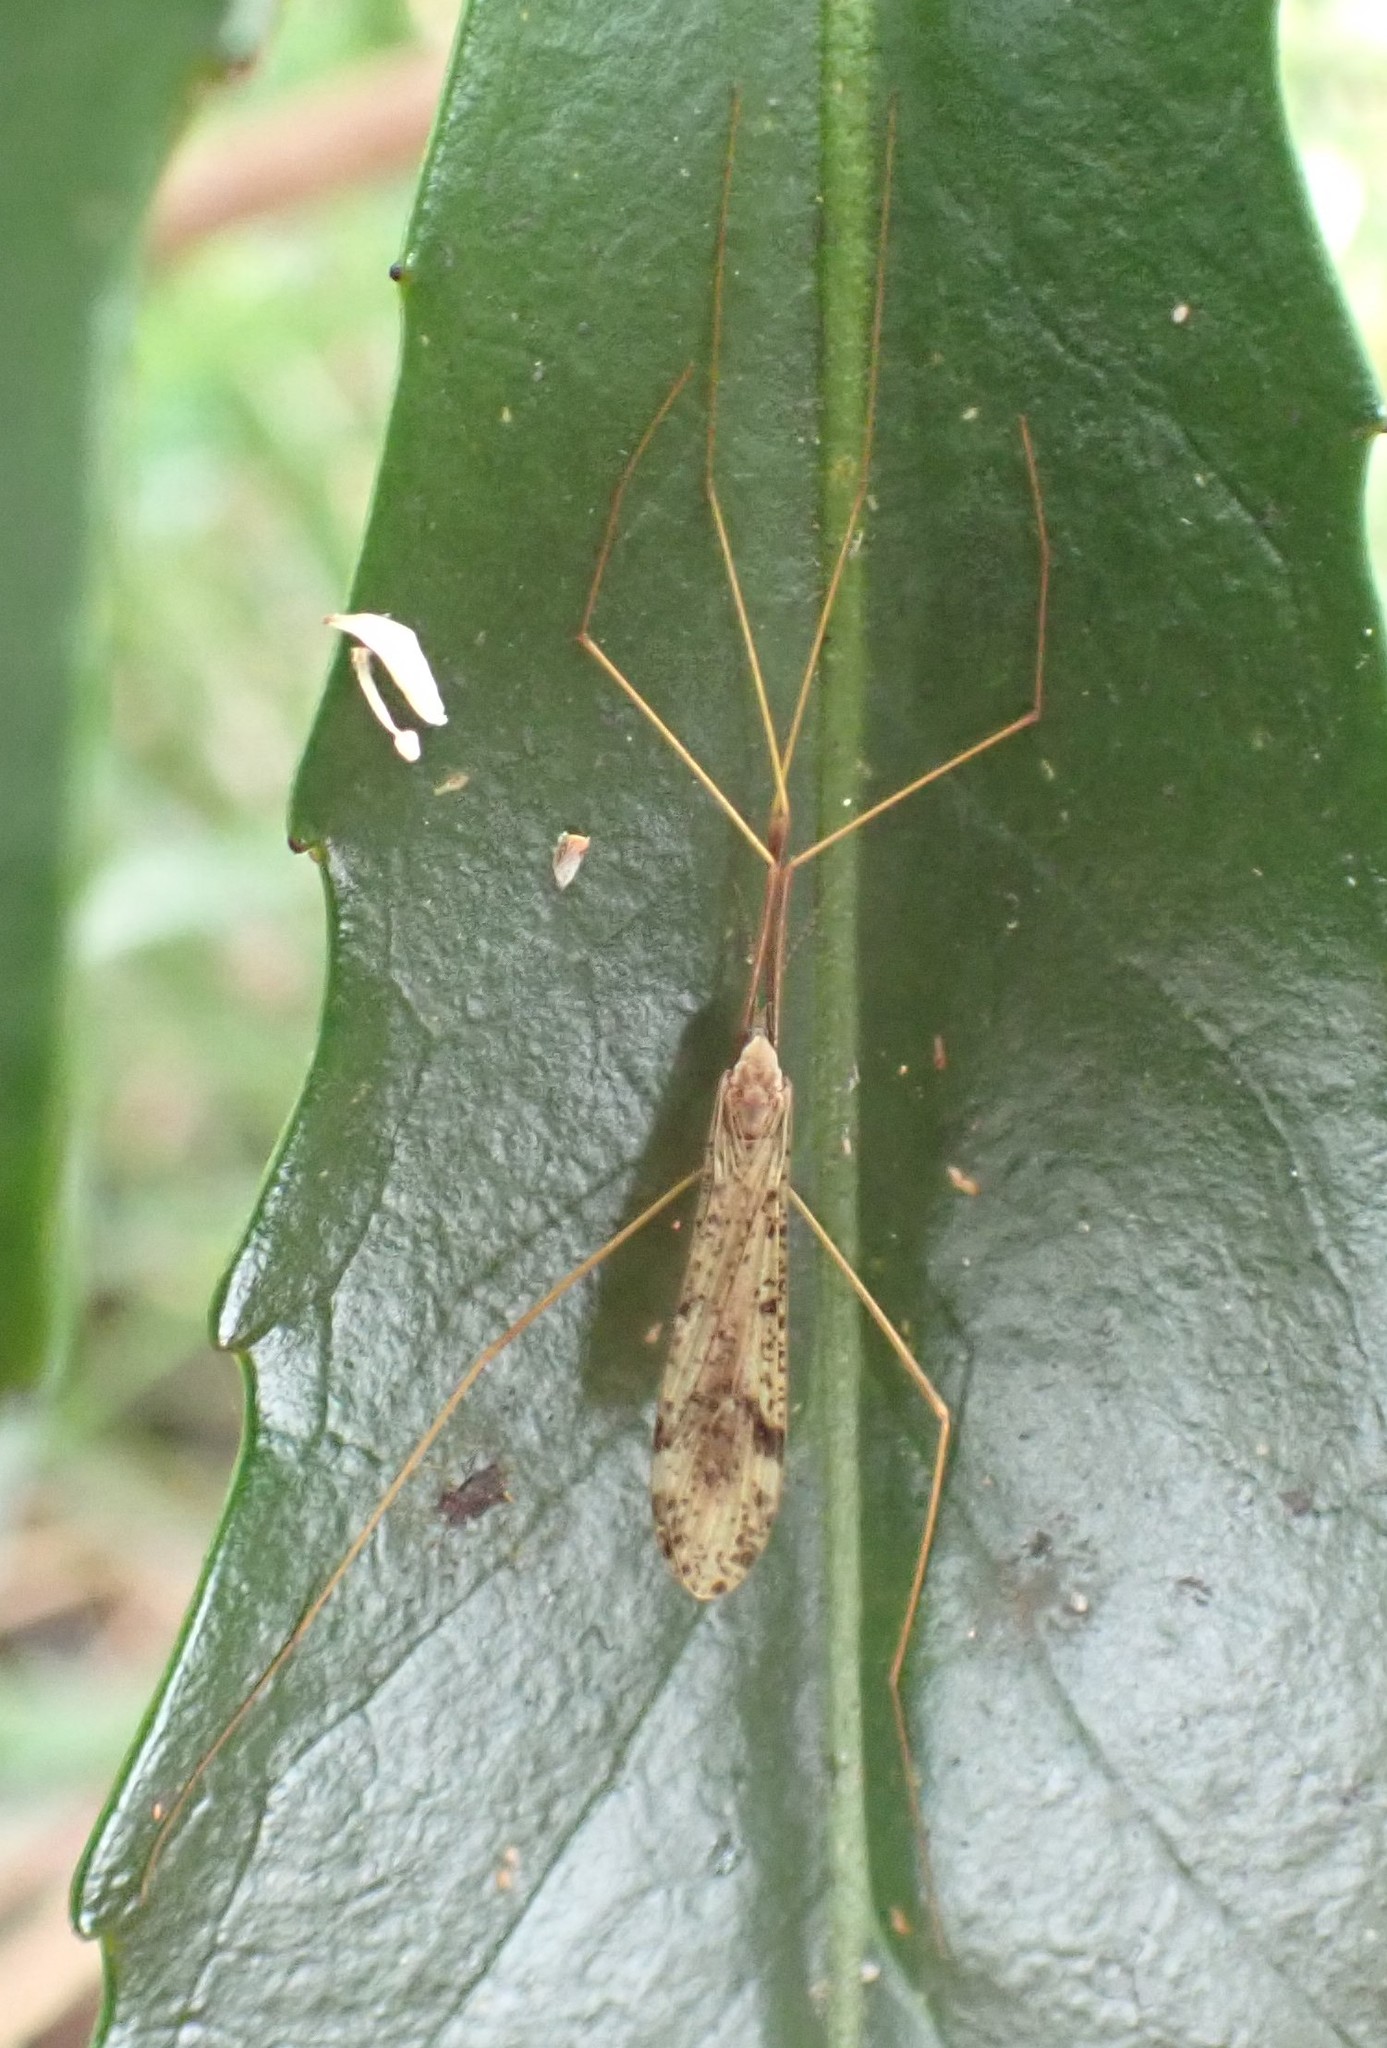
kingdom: Animalia
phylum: Arthropoda
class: Insecta
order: Diptera
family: Limoniidae
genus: Austrolimnophila
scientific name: Austrolimnophila antiqua
